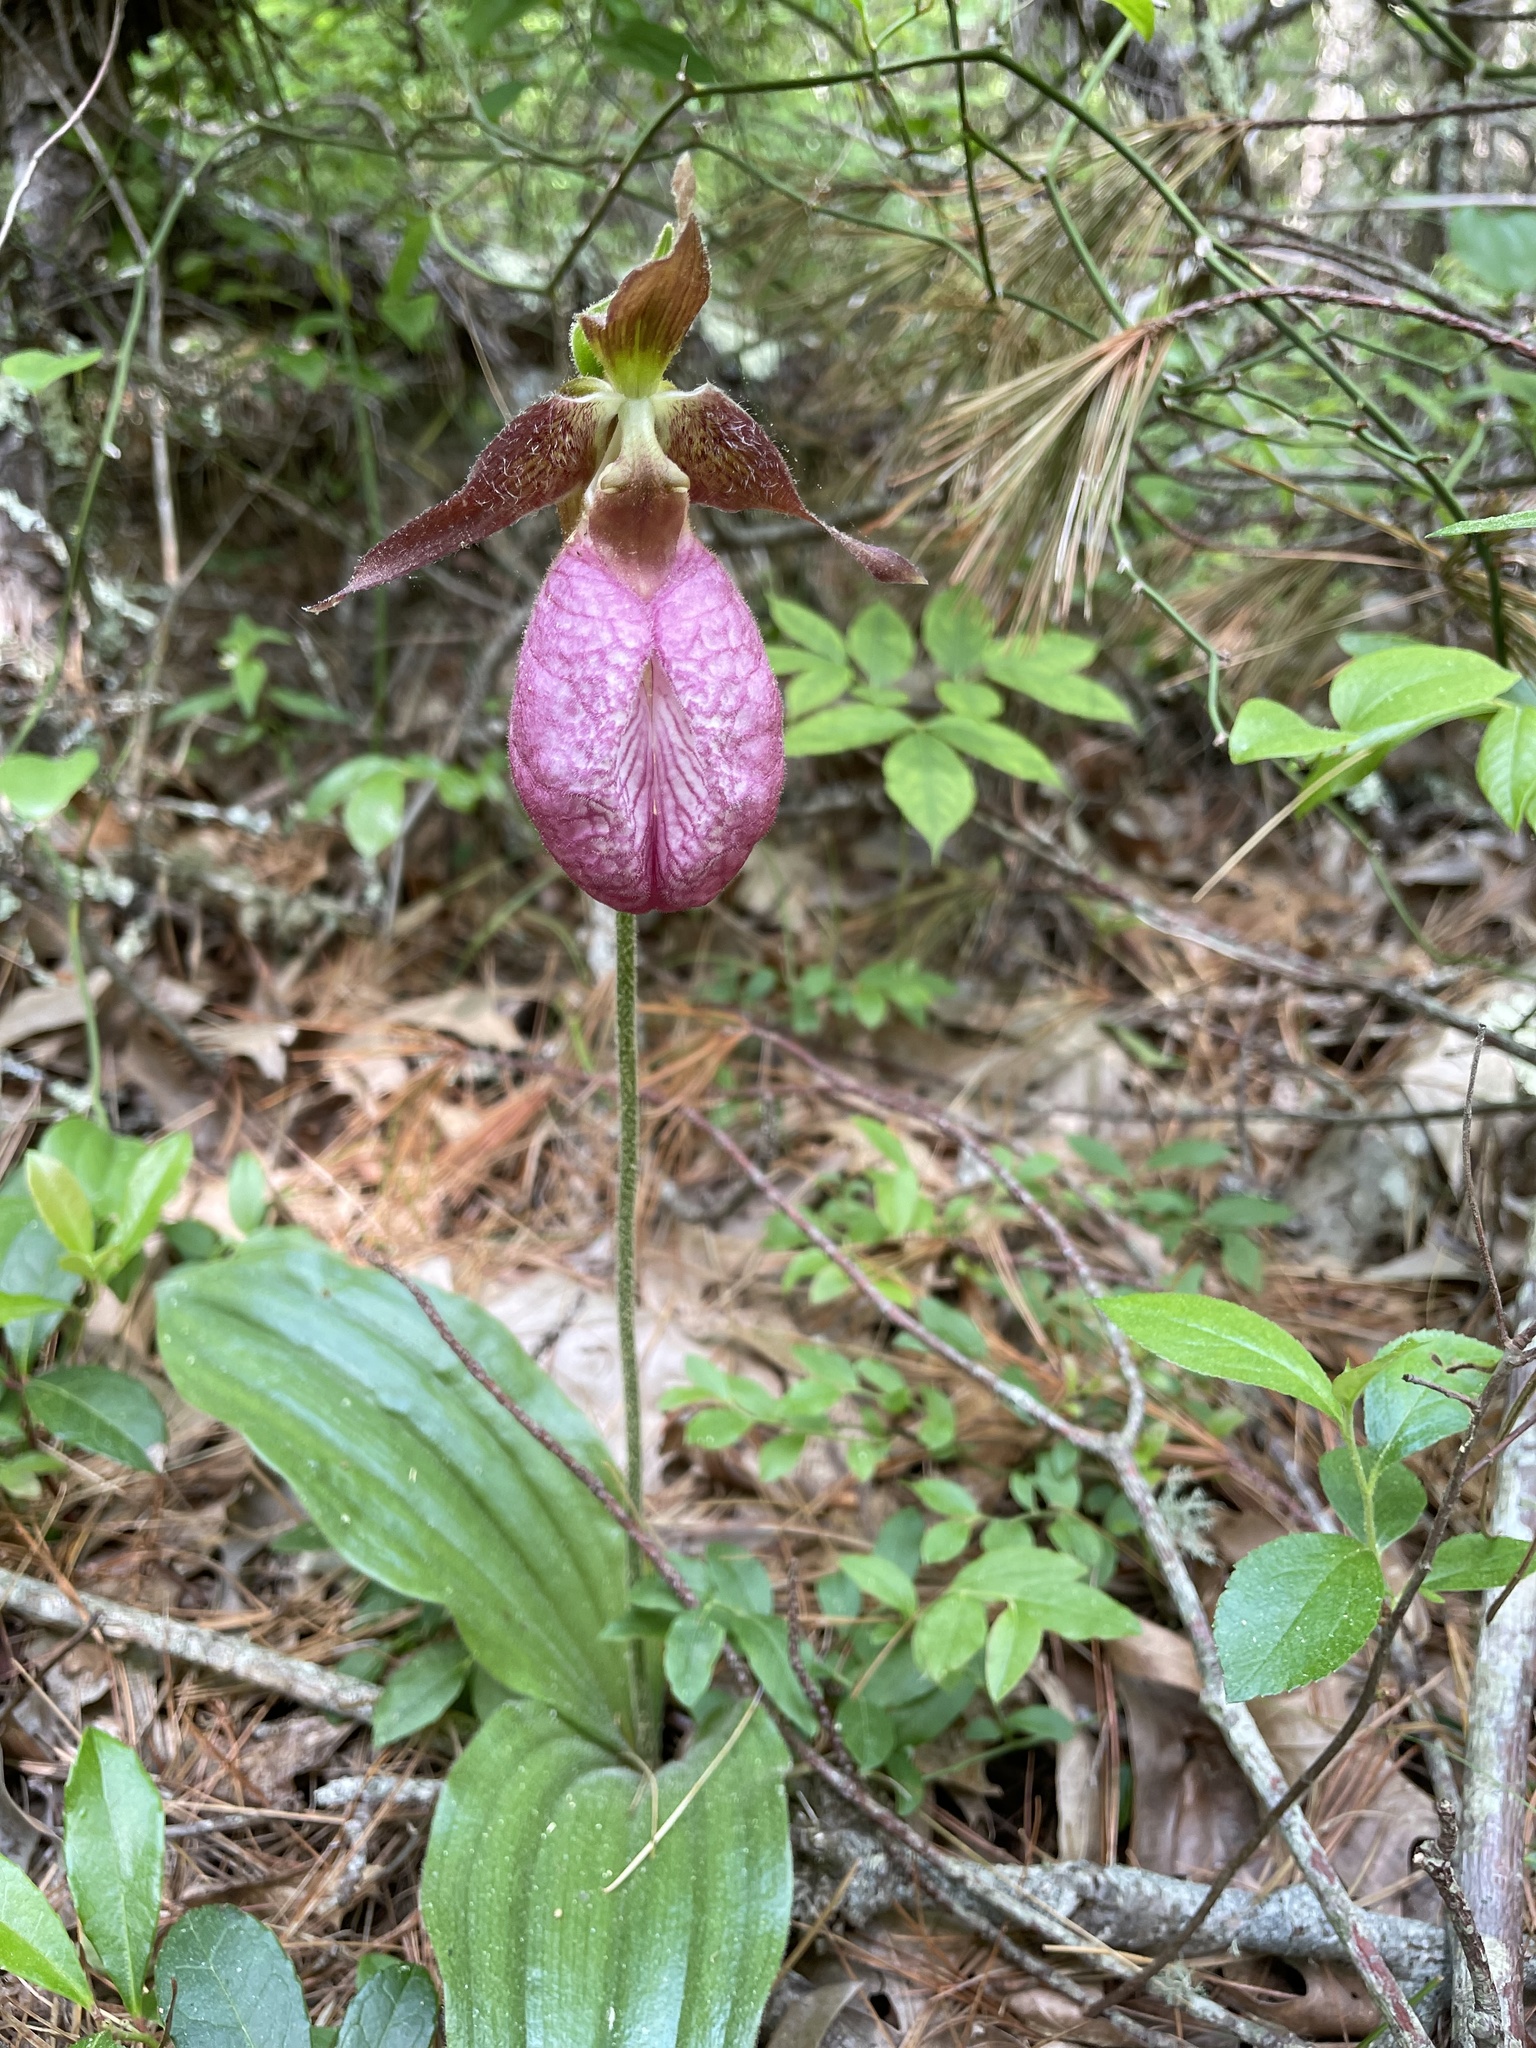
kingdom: Plantae
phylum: Tracheophyta
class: Liliopsida
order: Asparagales
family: Orchidaceae
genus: Cypripedium
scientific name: Cypripedium acaule
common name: Pink lady's-slipper
